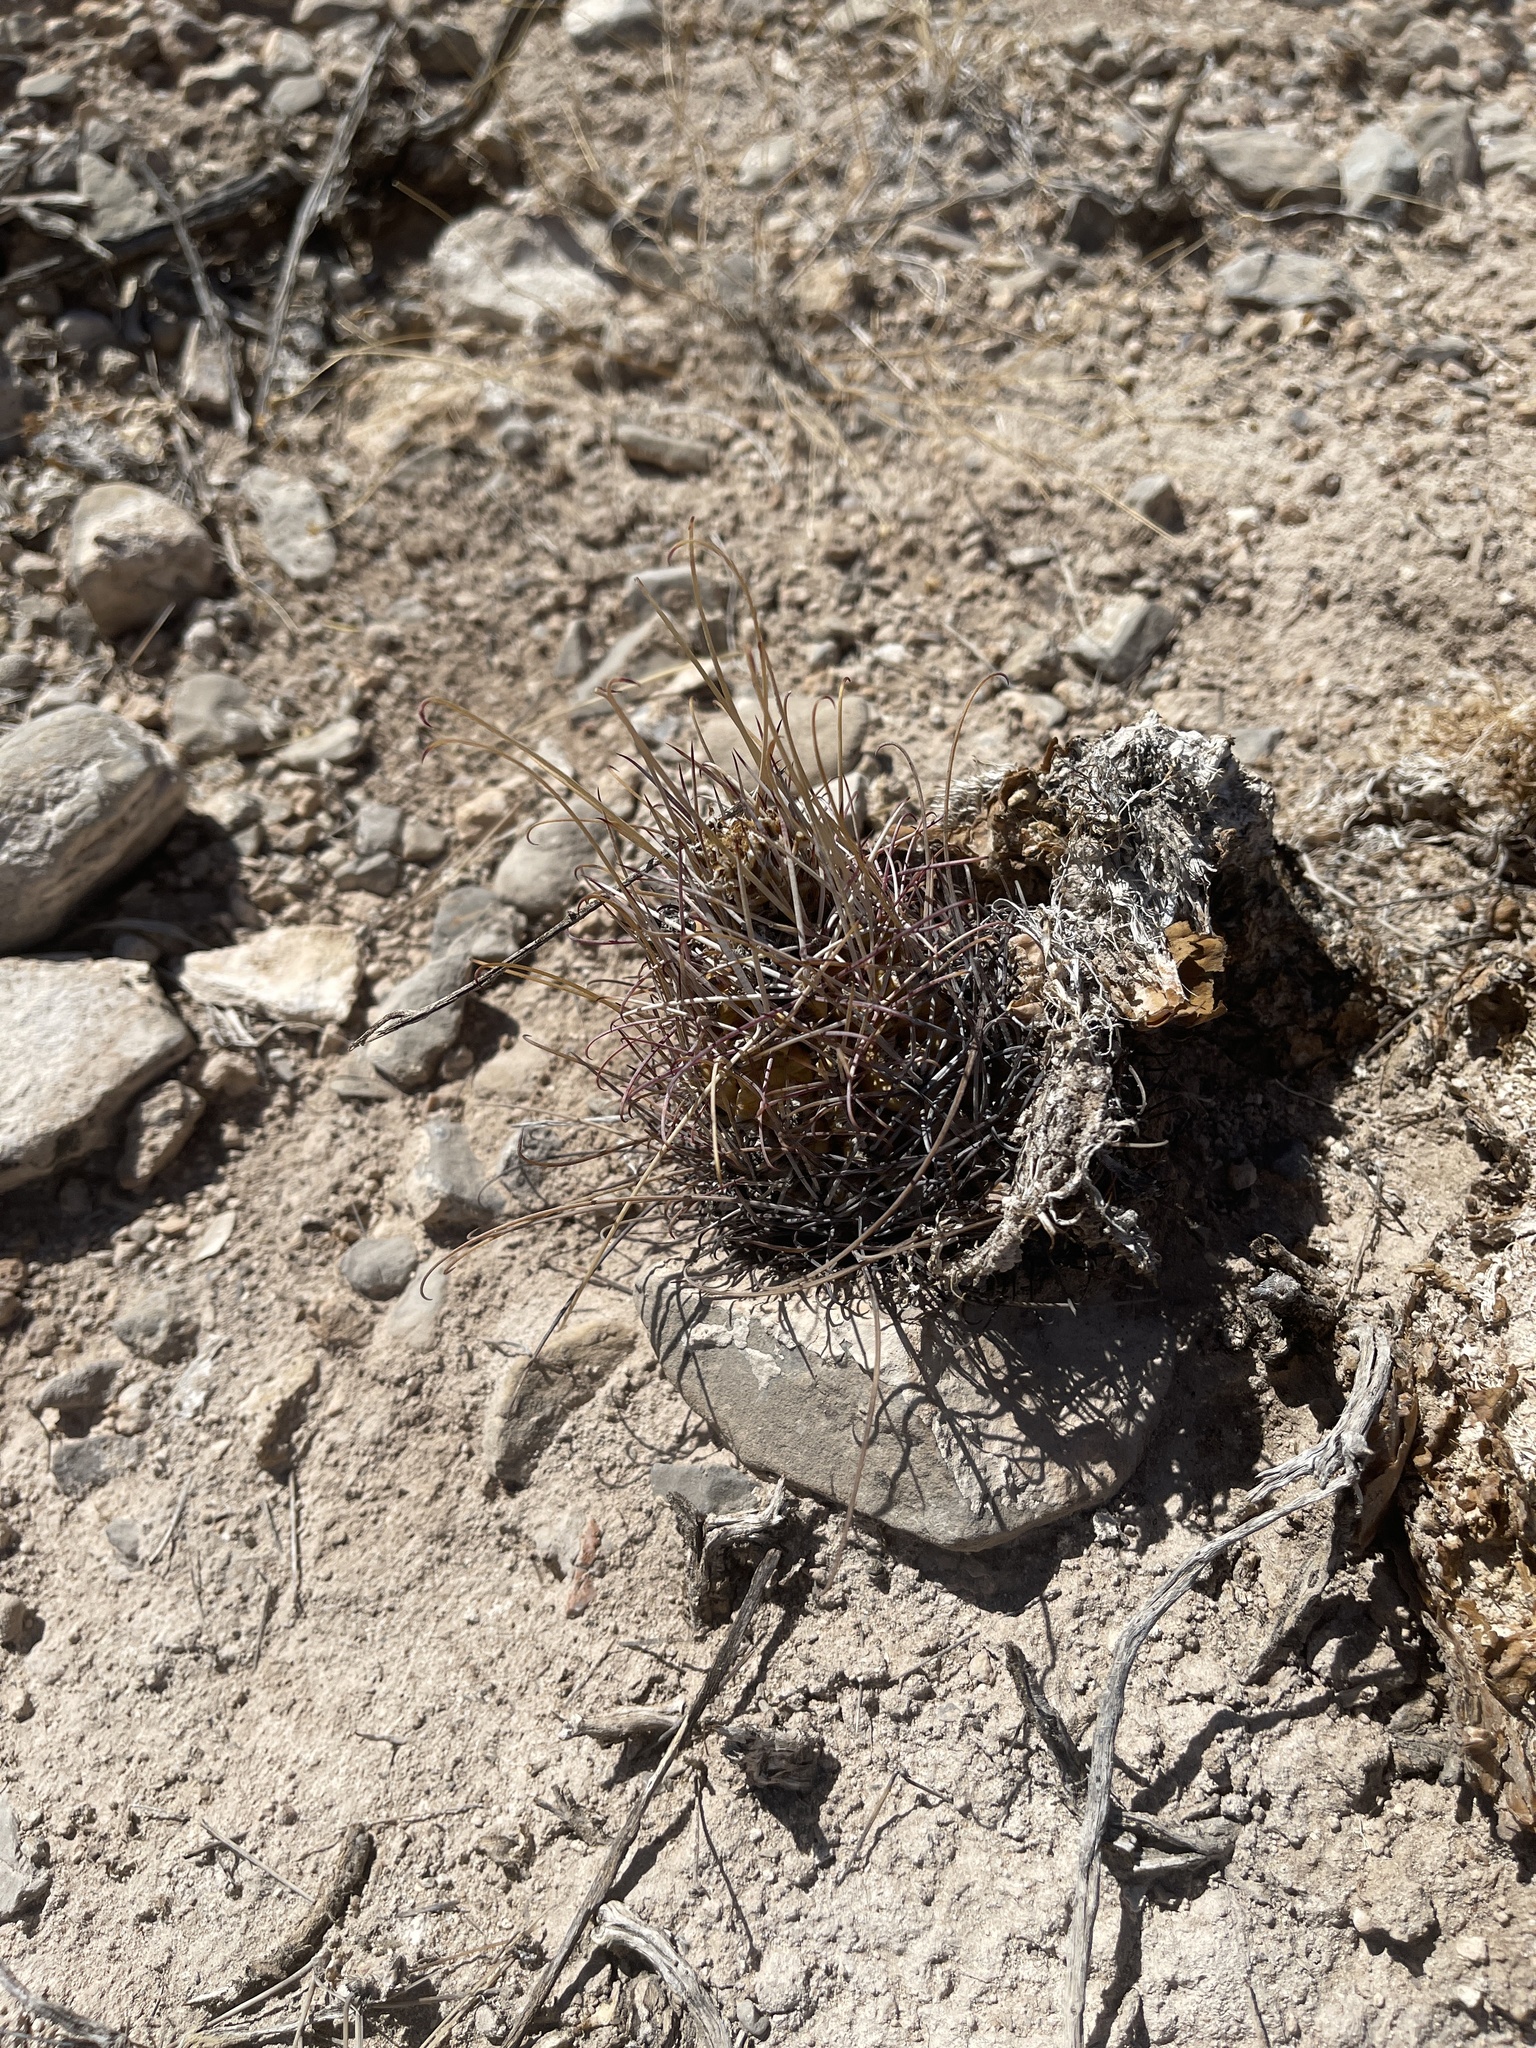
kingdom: Plantae
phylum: Tracheophyta
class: Magnoliopsida
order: Caryophyllales
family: Cactaceae
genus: Ferocactus
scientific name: Ferocactus uncinatus
